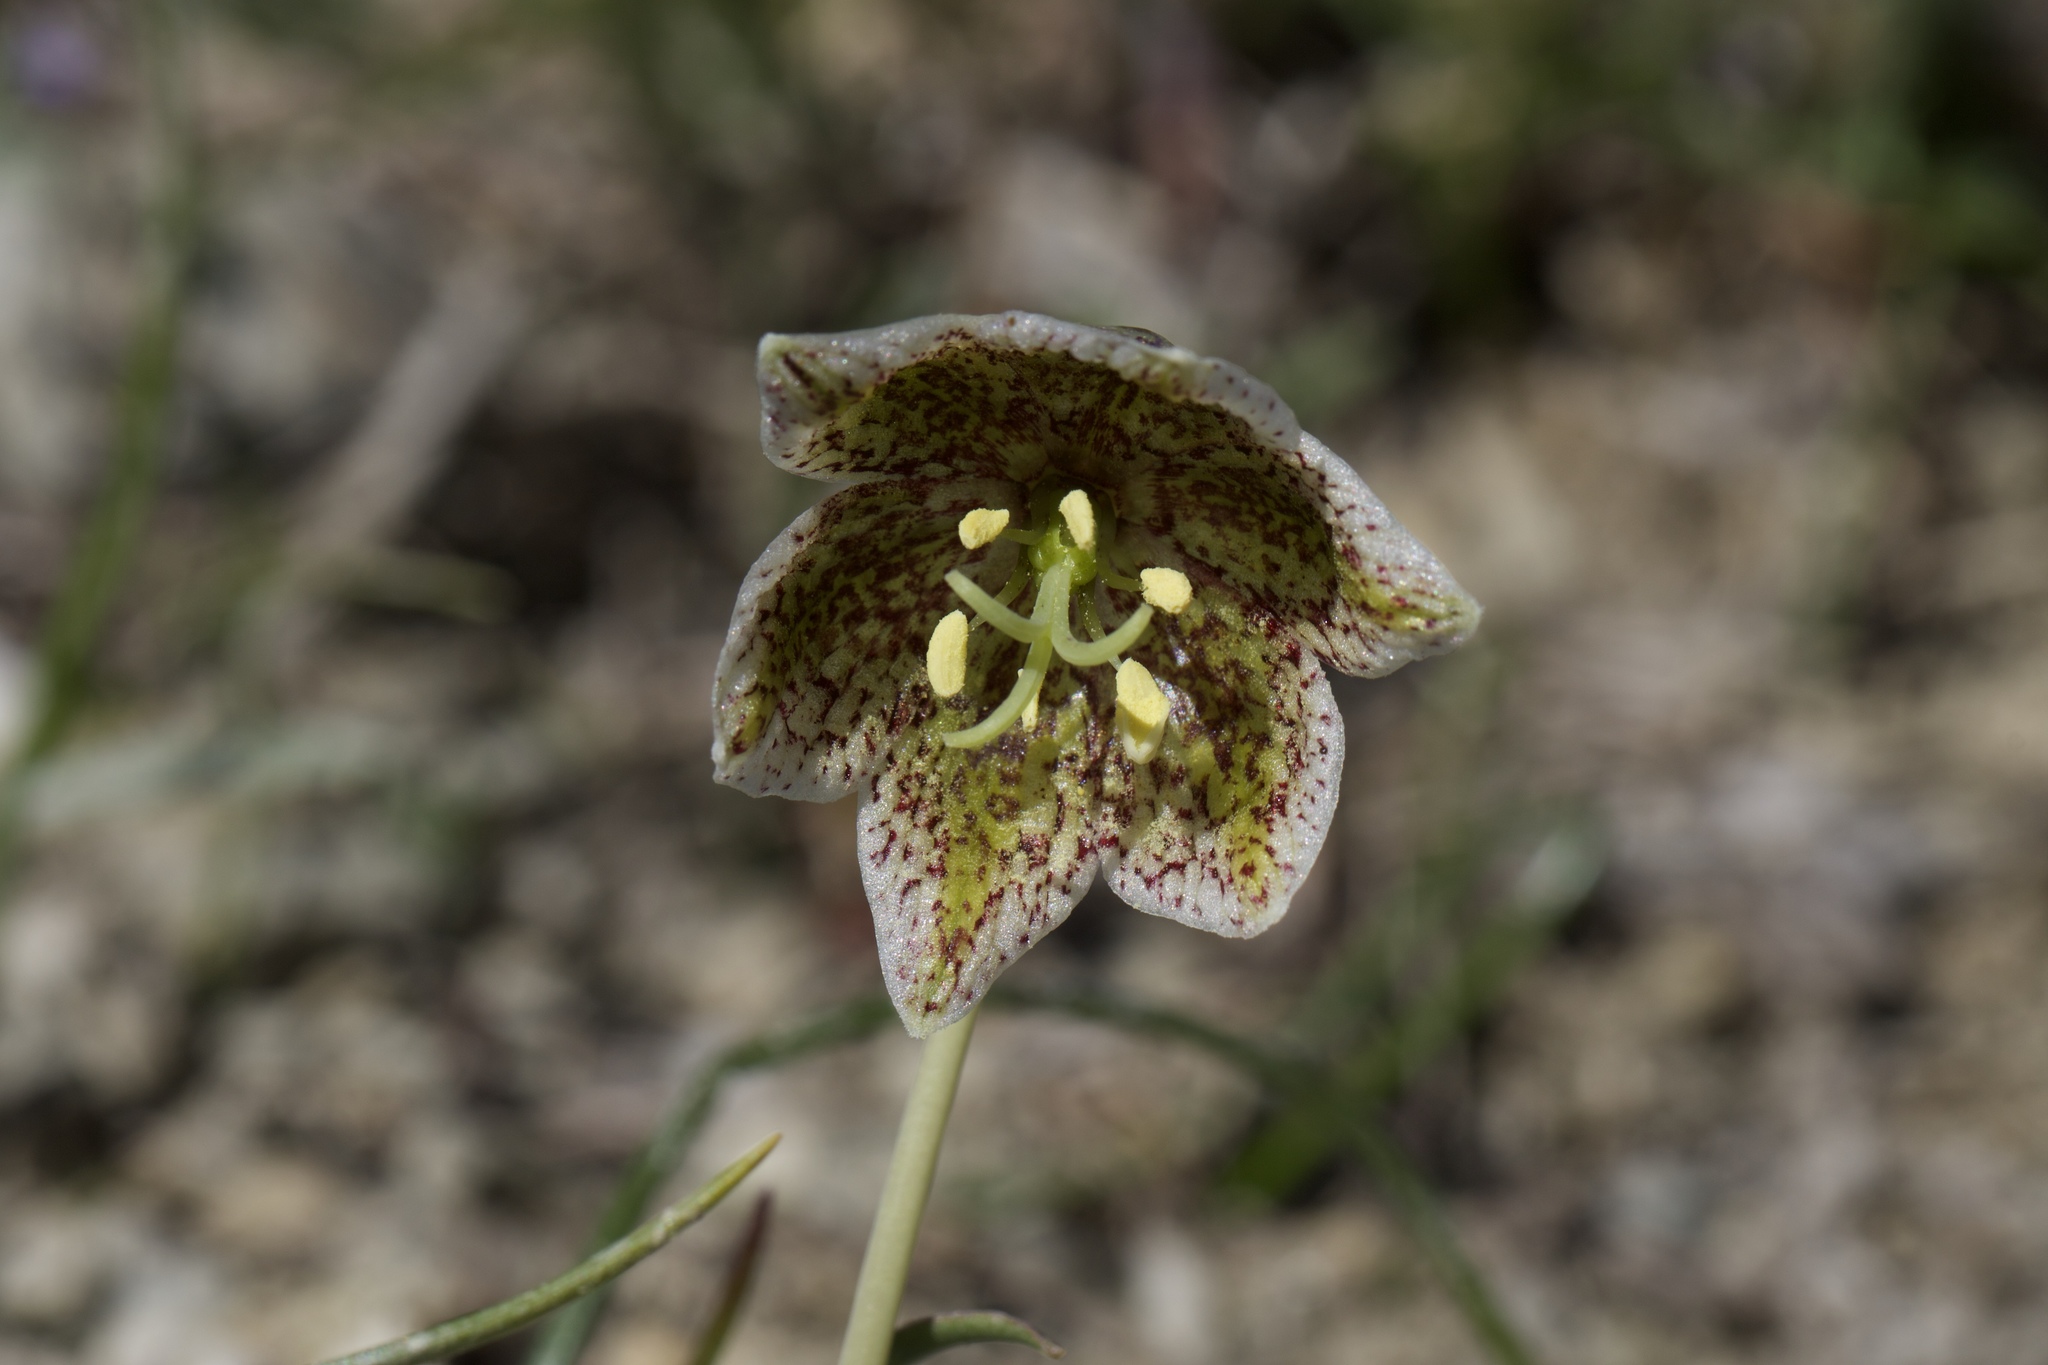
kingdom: Plantae
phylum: Tracheophyta
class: Liliopsida
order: Liliales
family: Liliaceae
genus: Fritillaria
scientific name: Fritillaria purdyi
